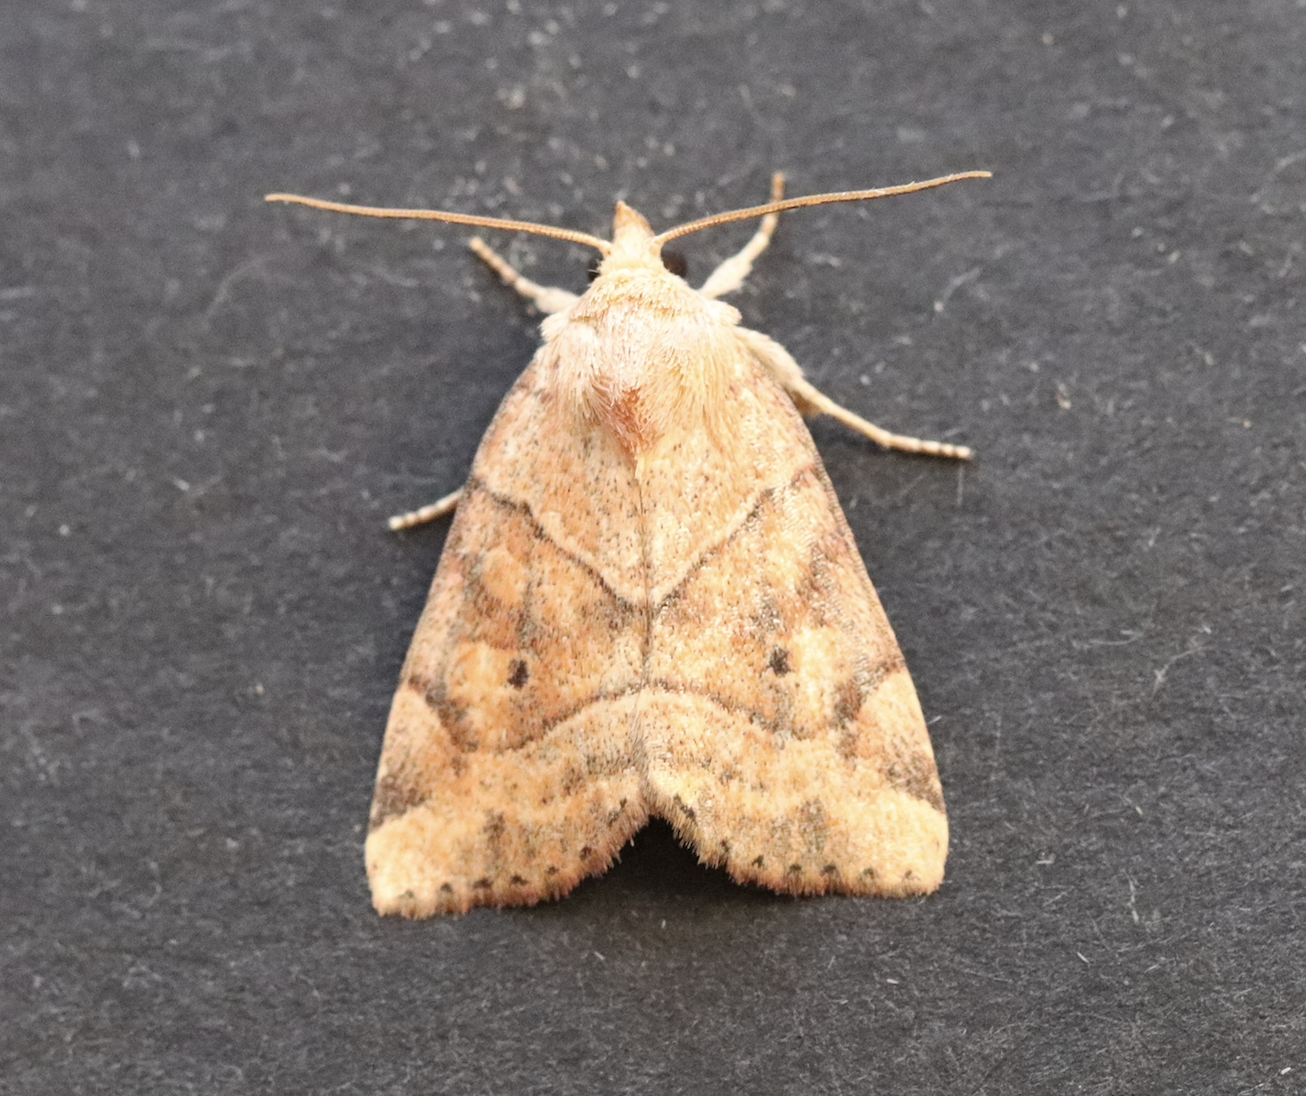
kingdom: Animalia
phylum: Arthropoda
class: Insecta
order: Lepidoptera
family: Noctuidae
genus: Cosmia
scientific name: Cosmia trapezina
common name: Dun-bar
